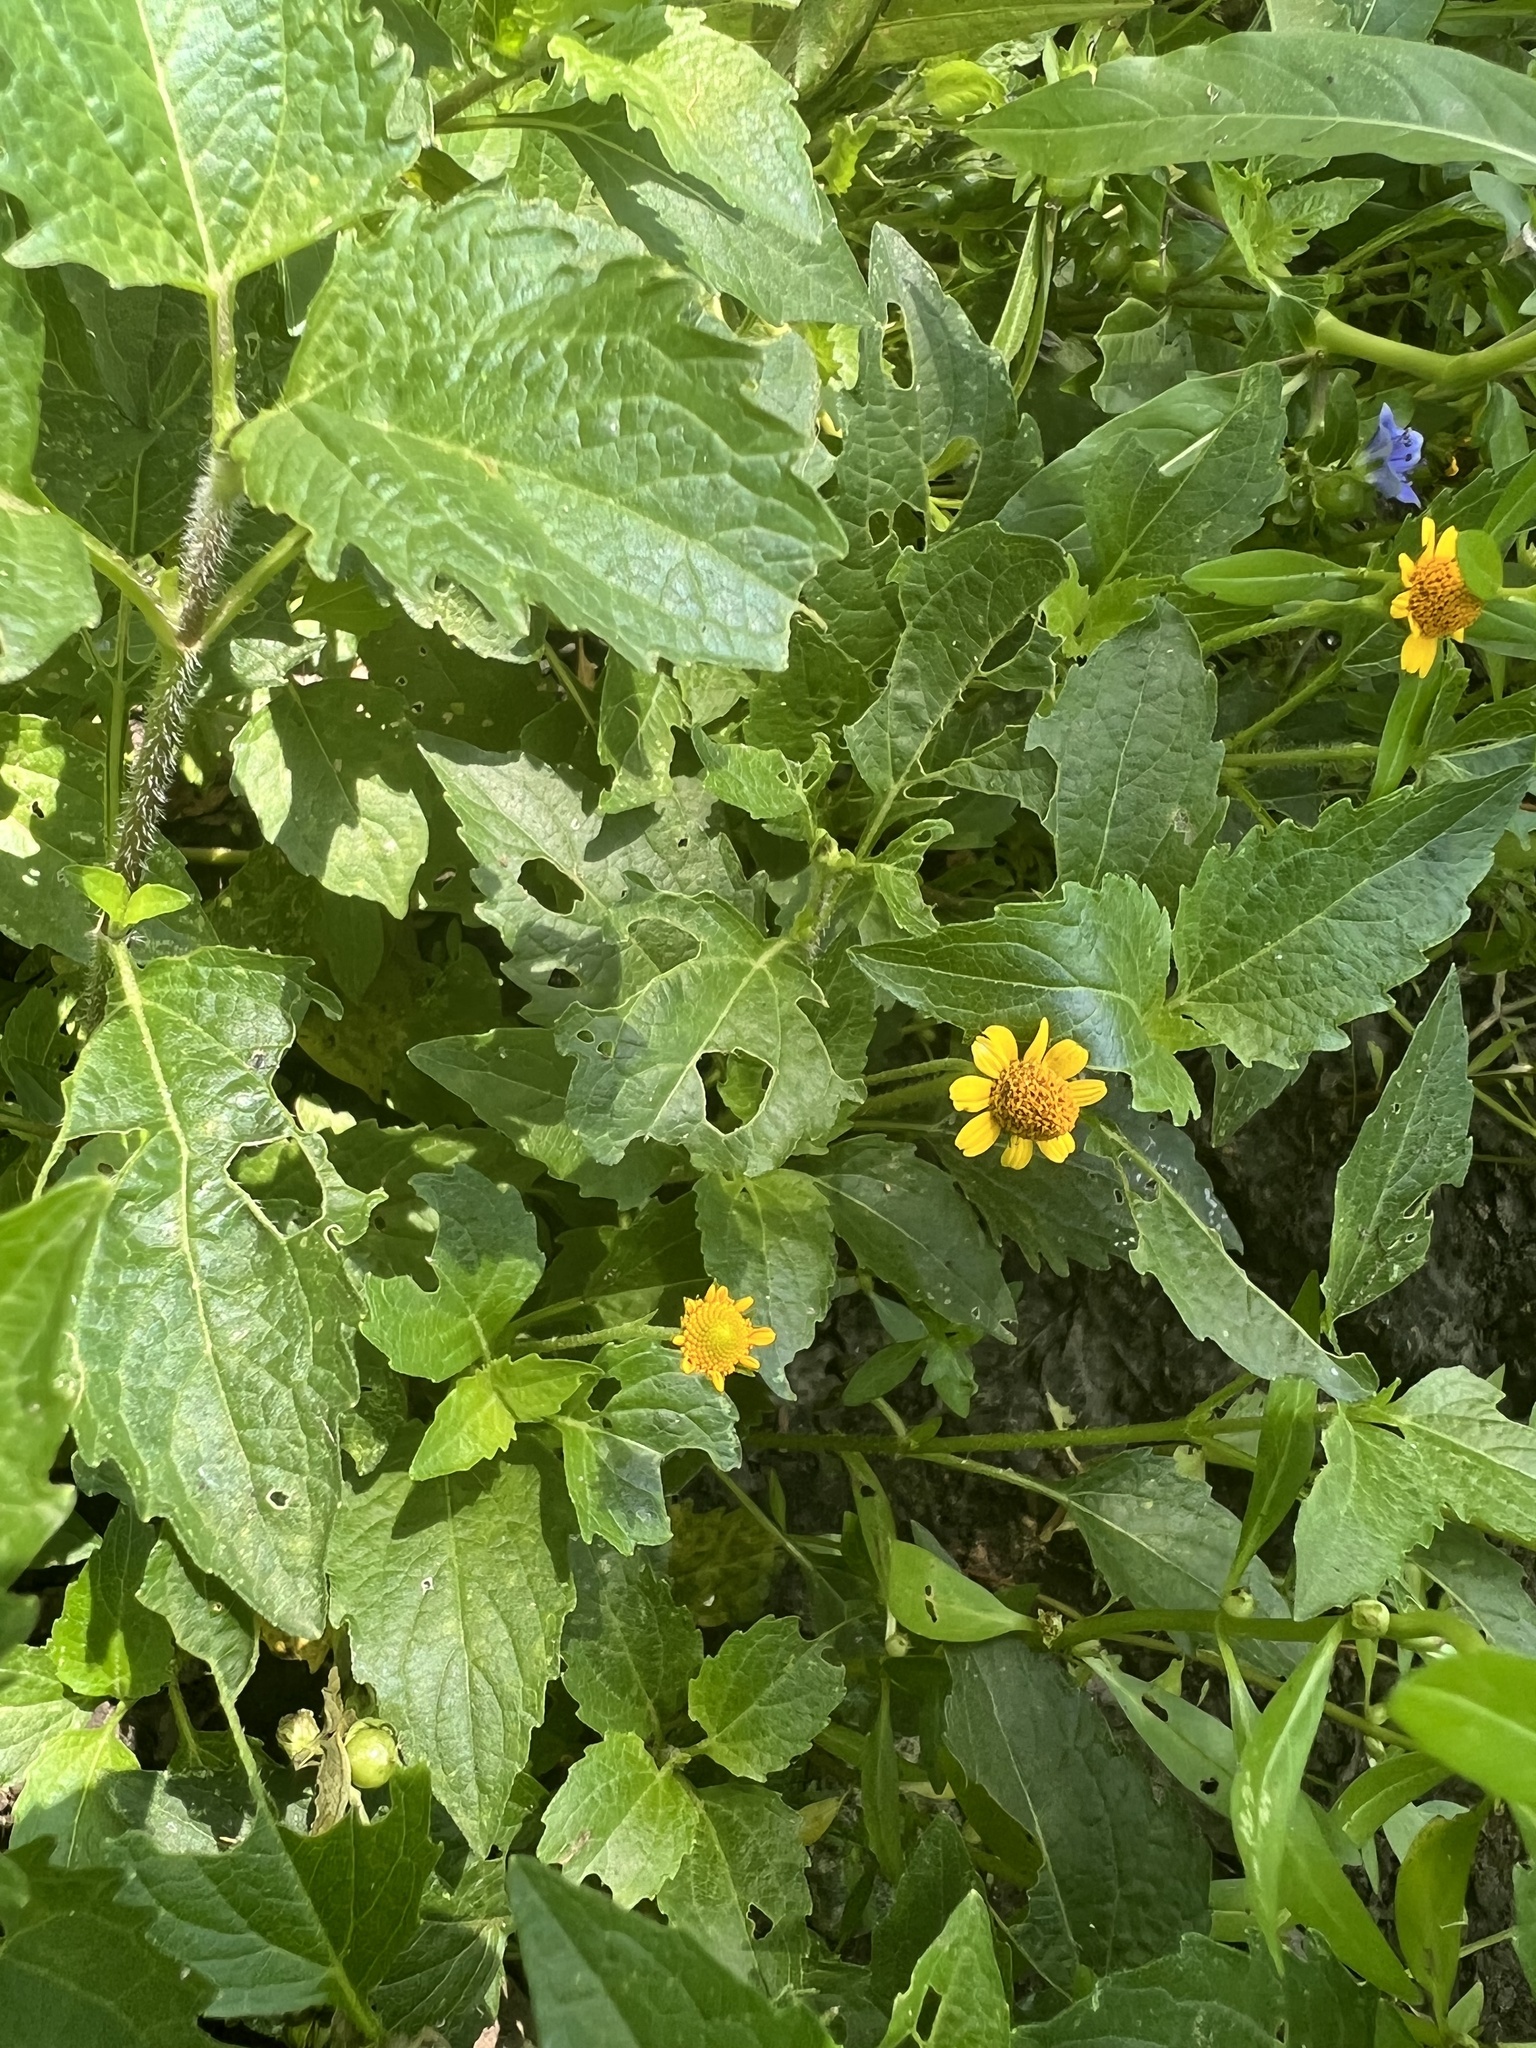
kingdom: Plantae
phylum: Tracheophyta
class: Magnoliopsida
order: Asterales
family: Asteraceae
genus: Acmella
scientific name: Acmella repens
